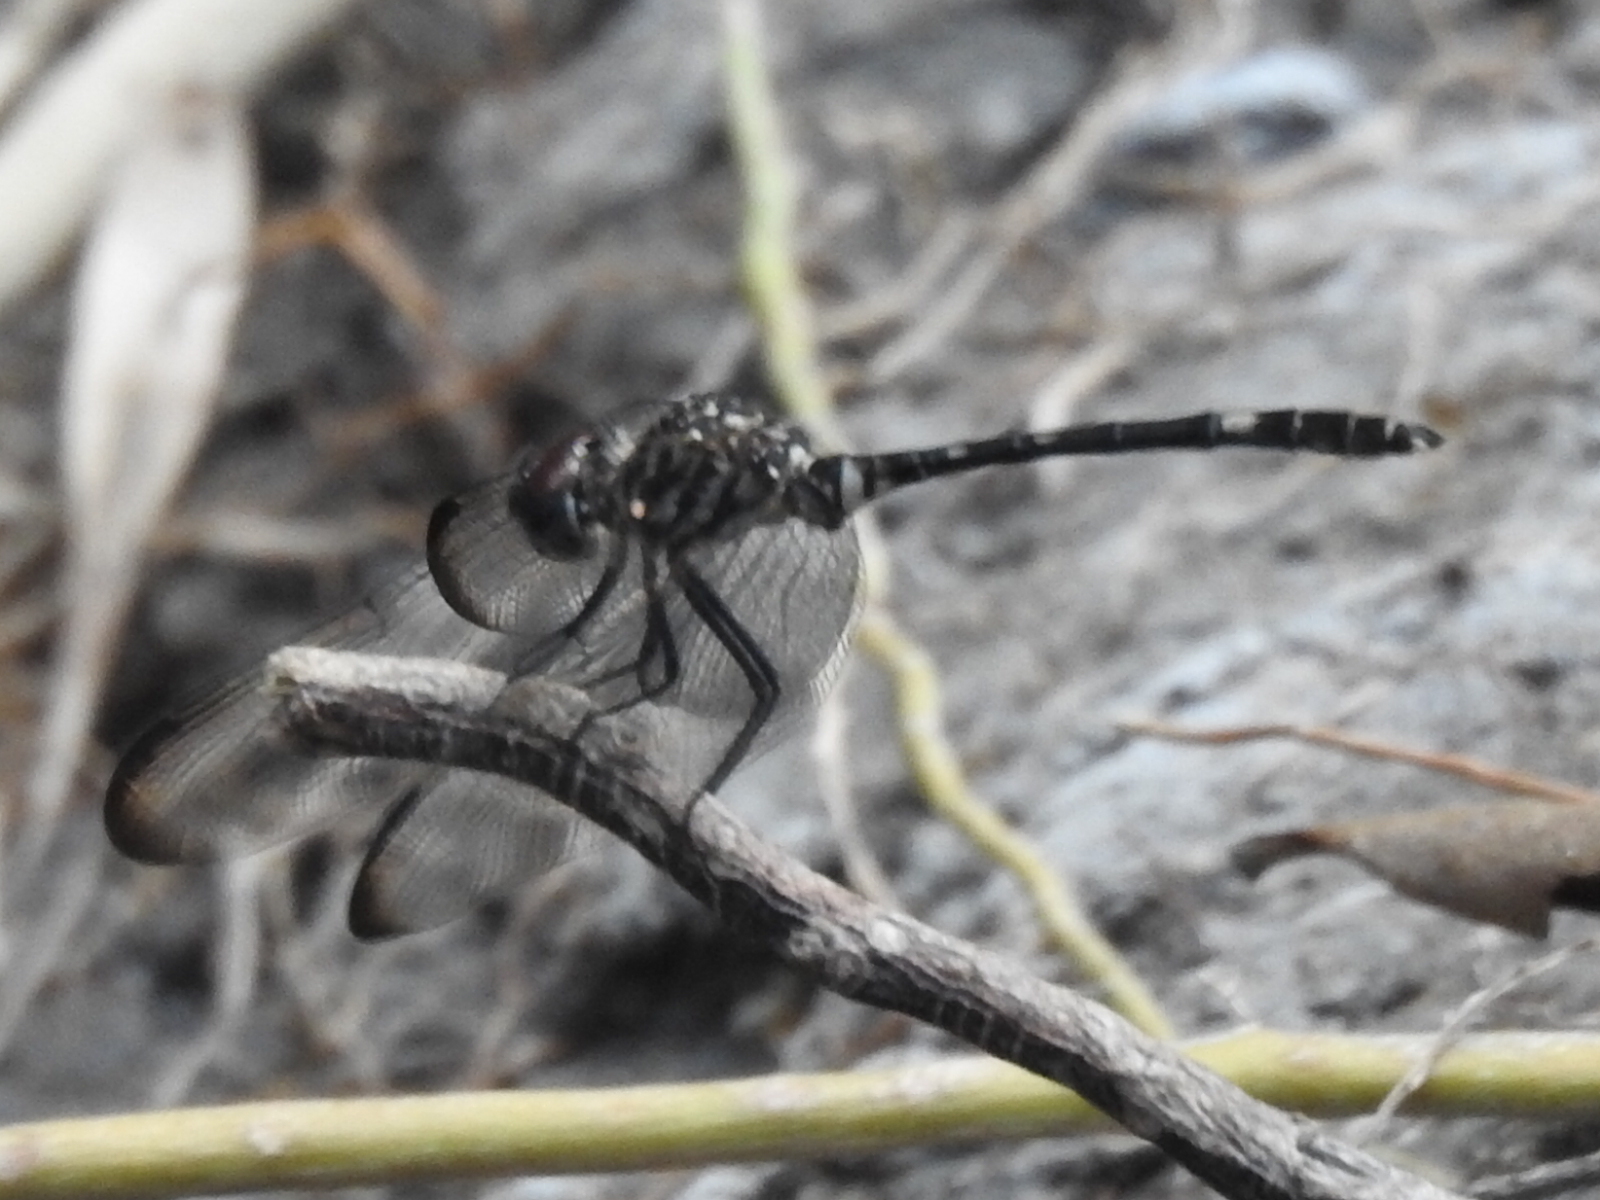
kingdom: Animalia
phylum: Arthropoda
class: Insecta
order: Odonata
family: Libellulidae
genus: Dythemis
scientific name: Dythemis velox
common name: Swift setwing
